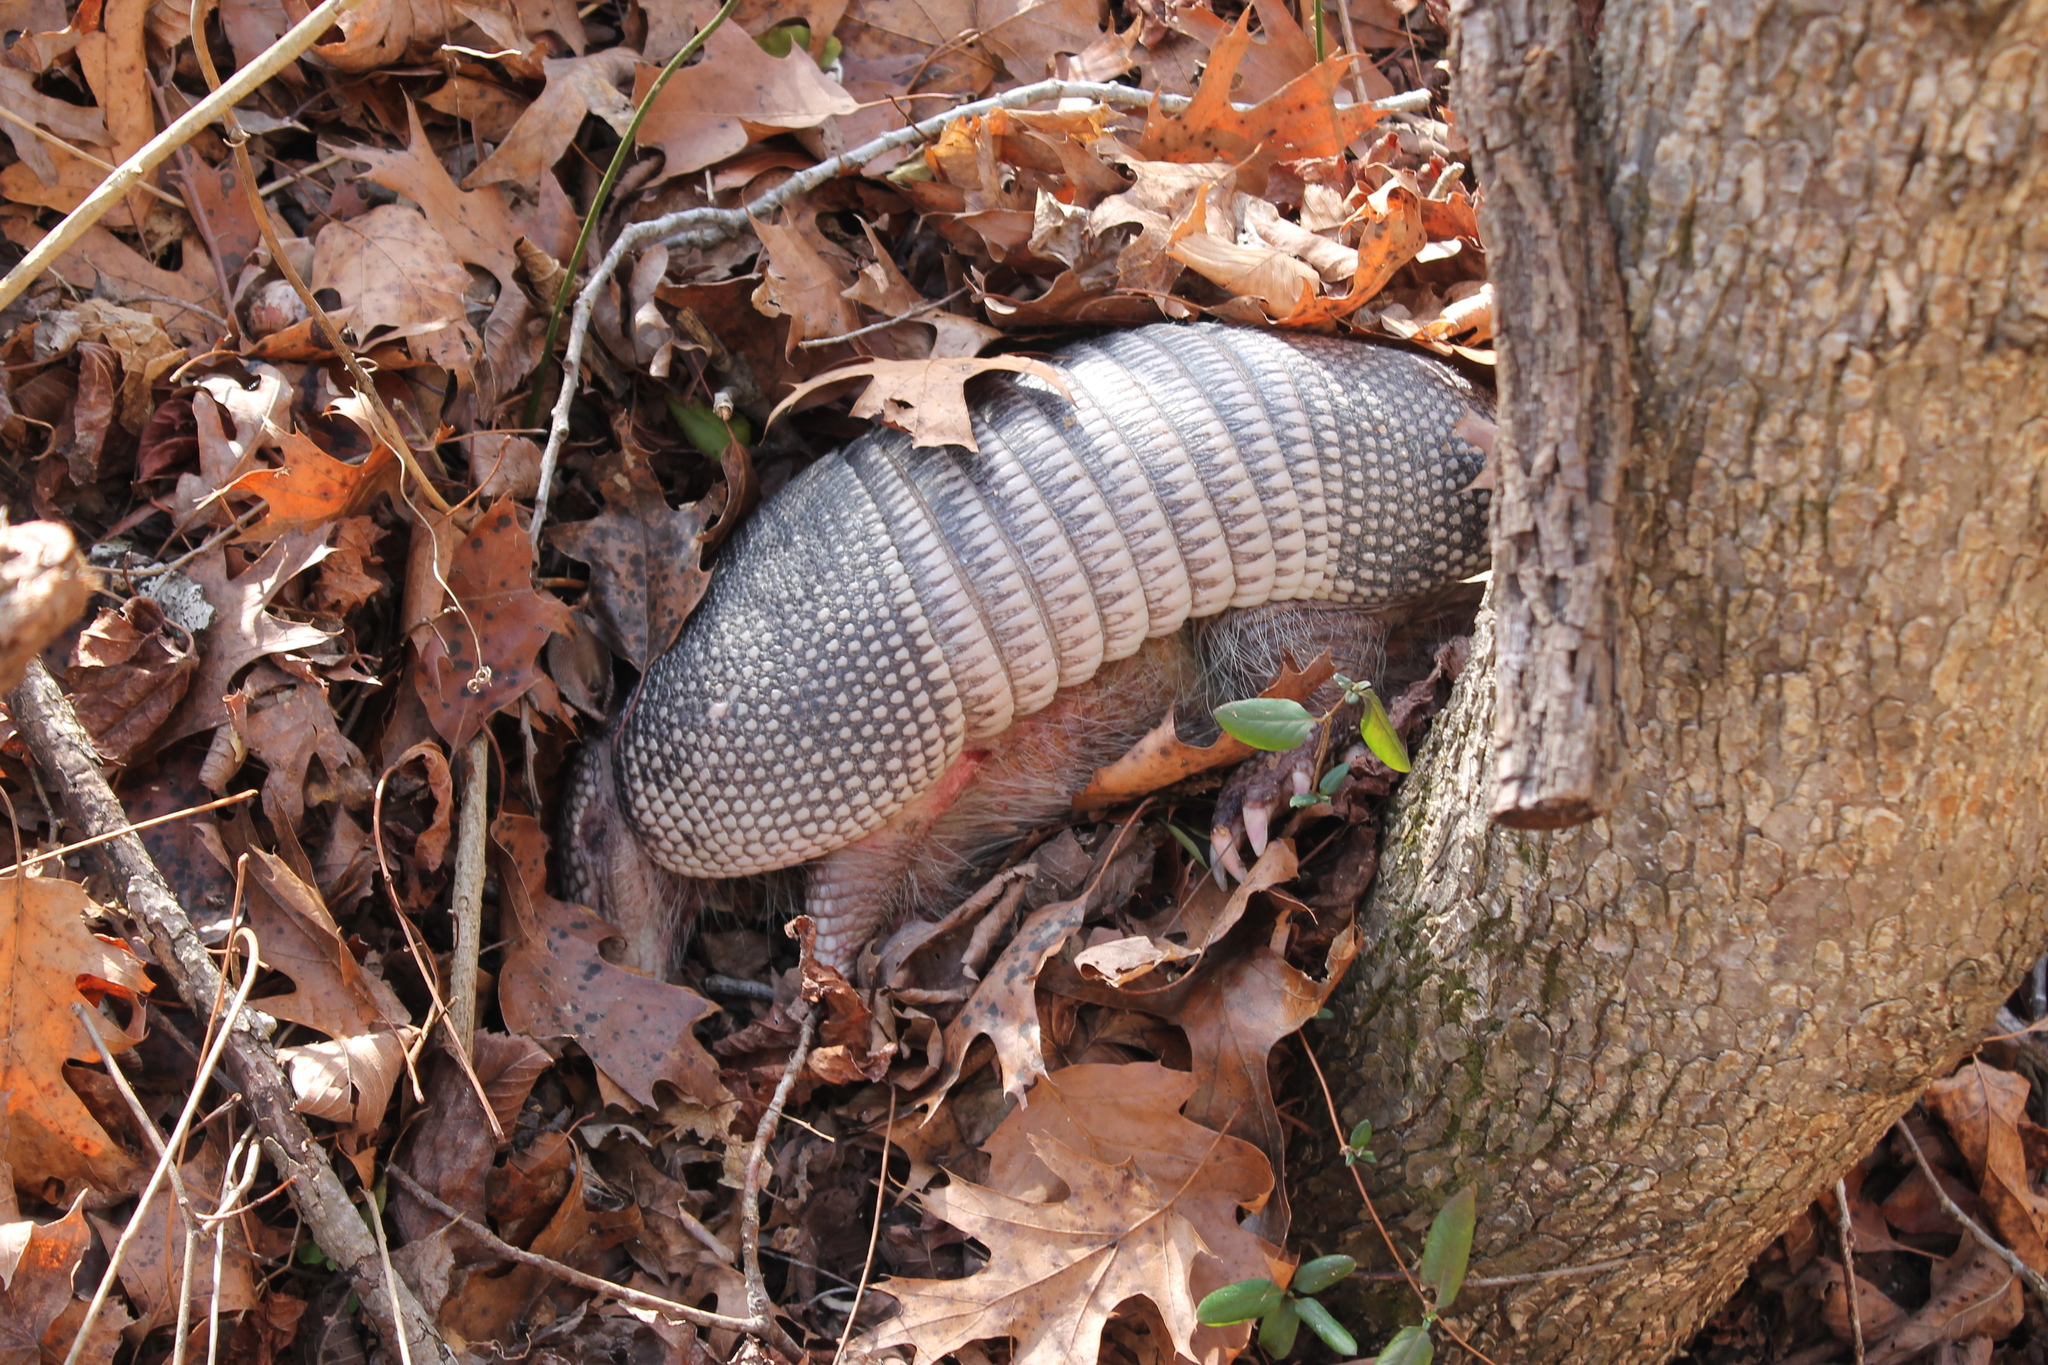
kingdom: Animalia
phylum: Chordata
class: Mammalia
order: Cingulata
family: Dasypodidae
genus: Dasypus
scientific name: Dasypus novemcinctus
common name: Nine-banded armadillo
